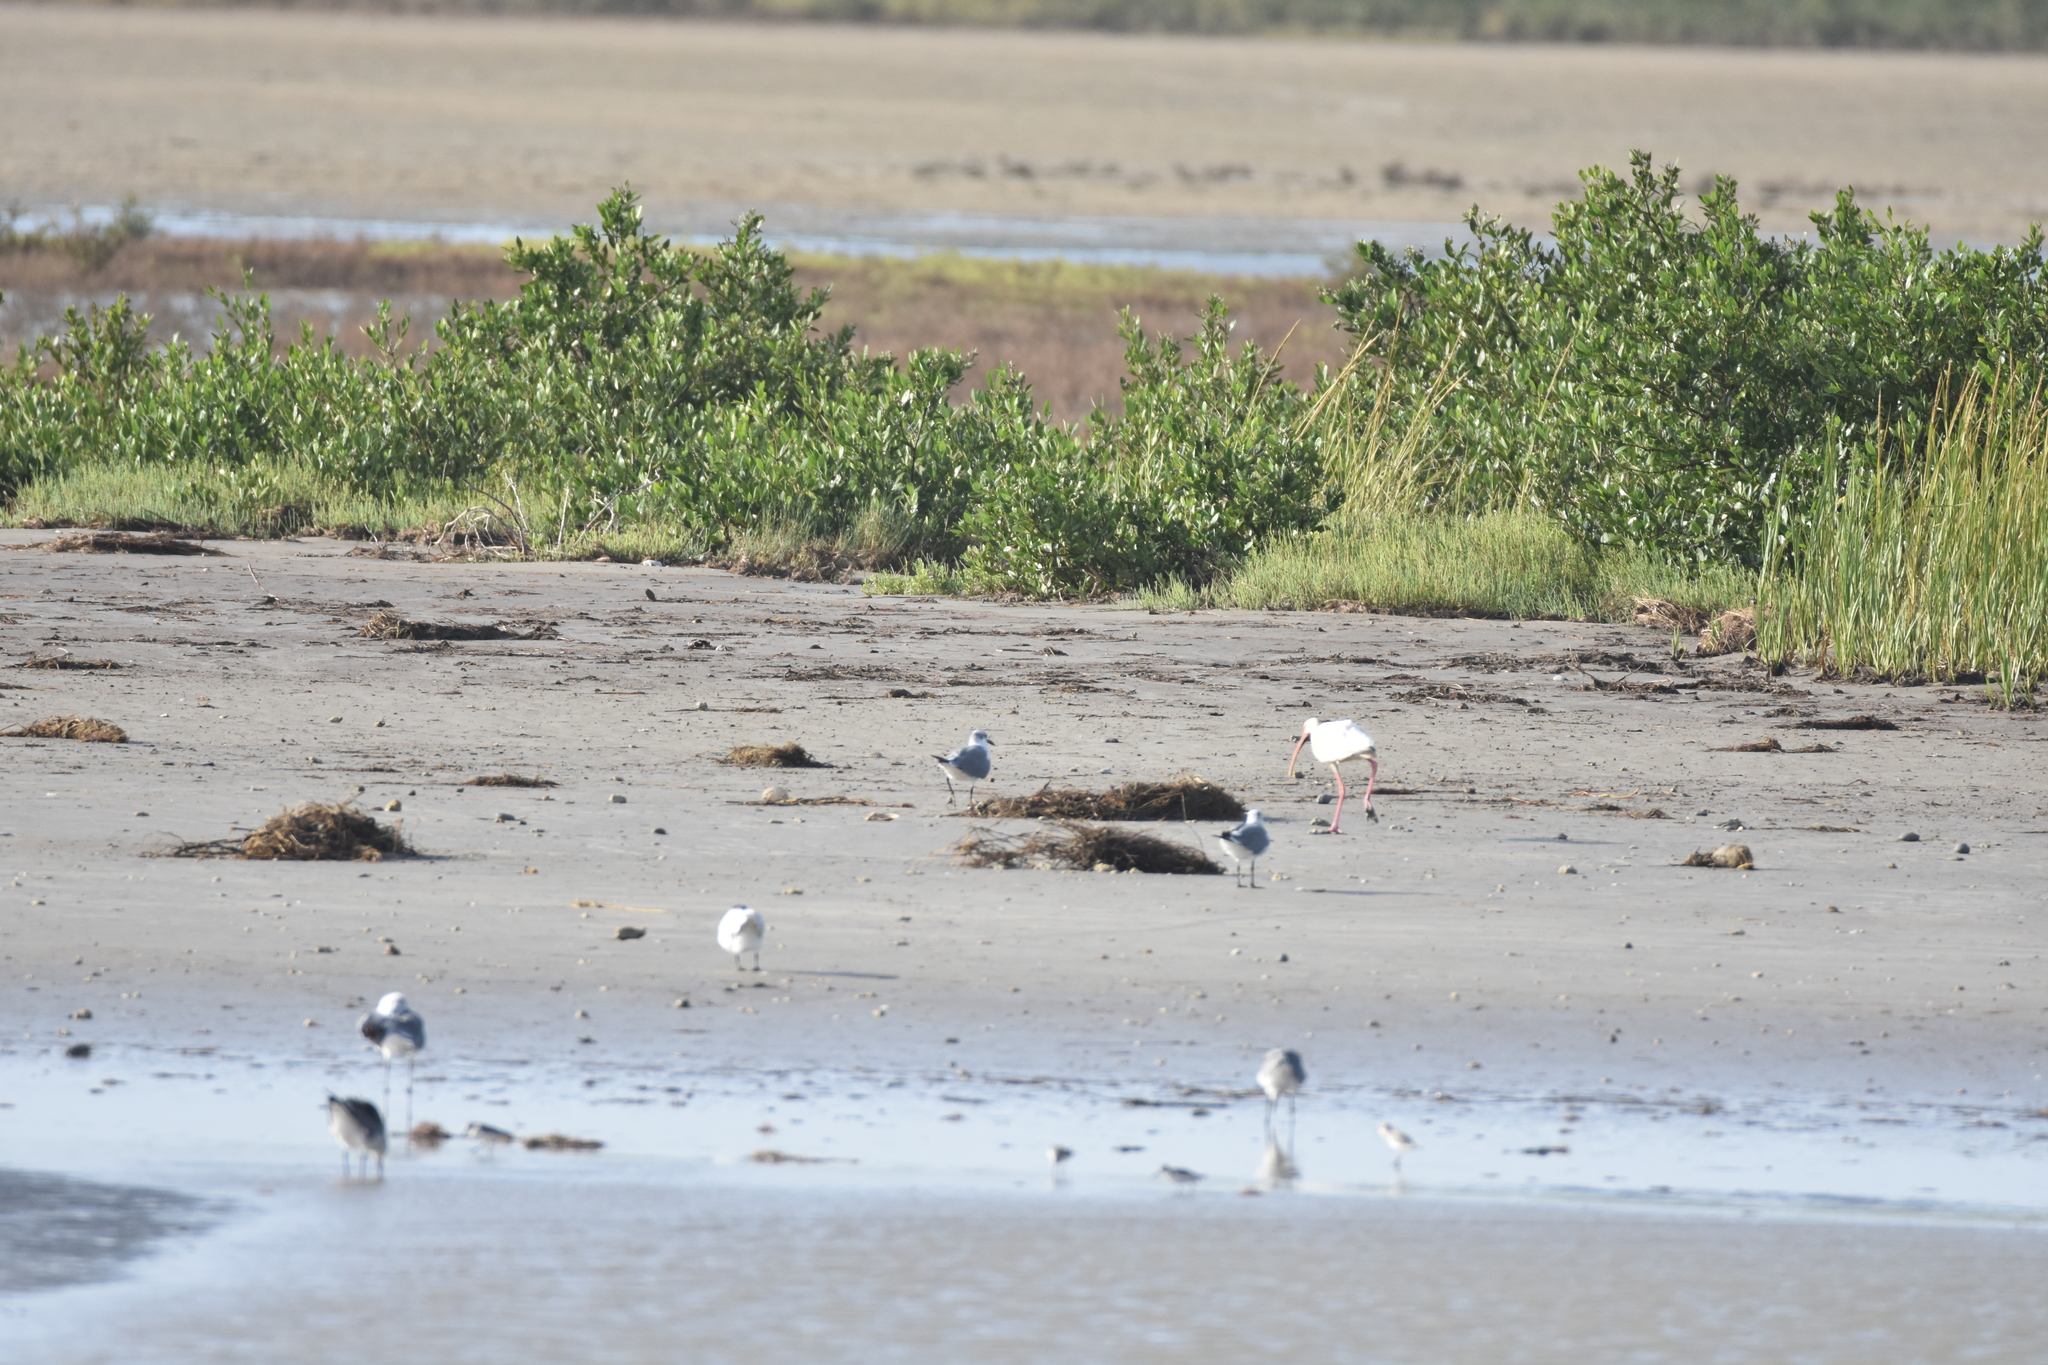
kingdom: Animalia
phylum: Chordata
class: Aves
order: Pelecaniformes
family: Threskiornithidae
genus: Eudocimus
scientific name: Eudocimus albus
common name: White ibis
